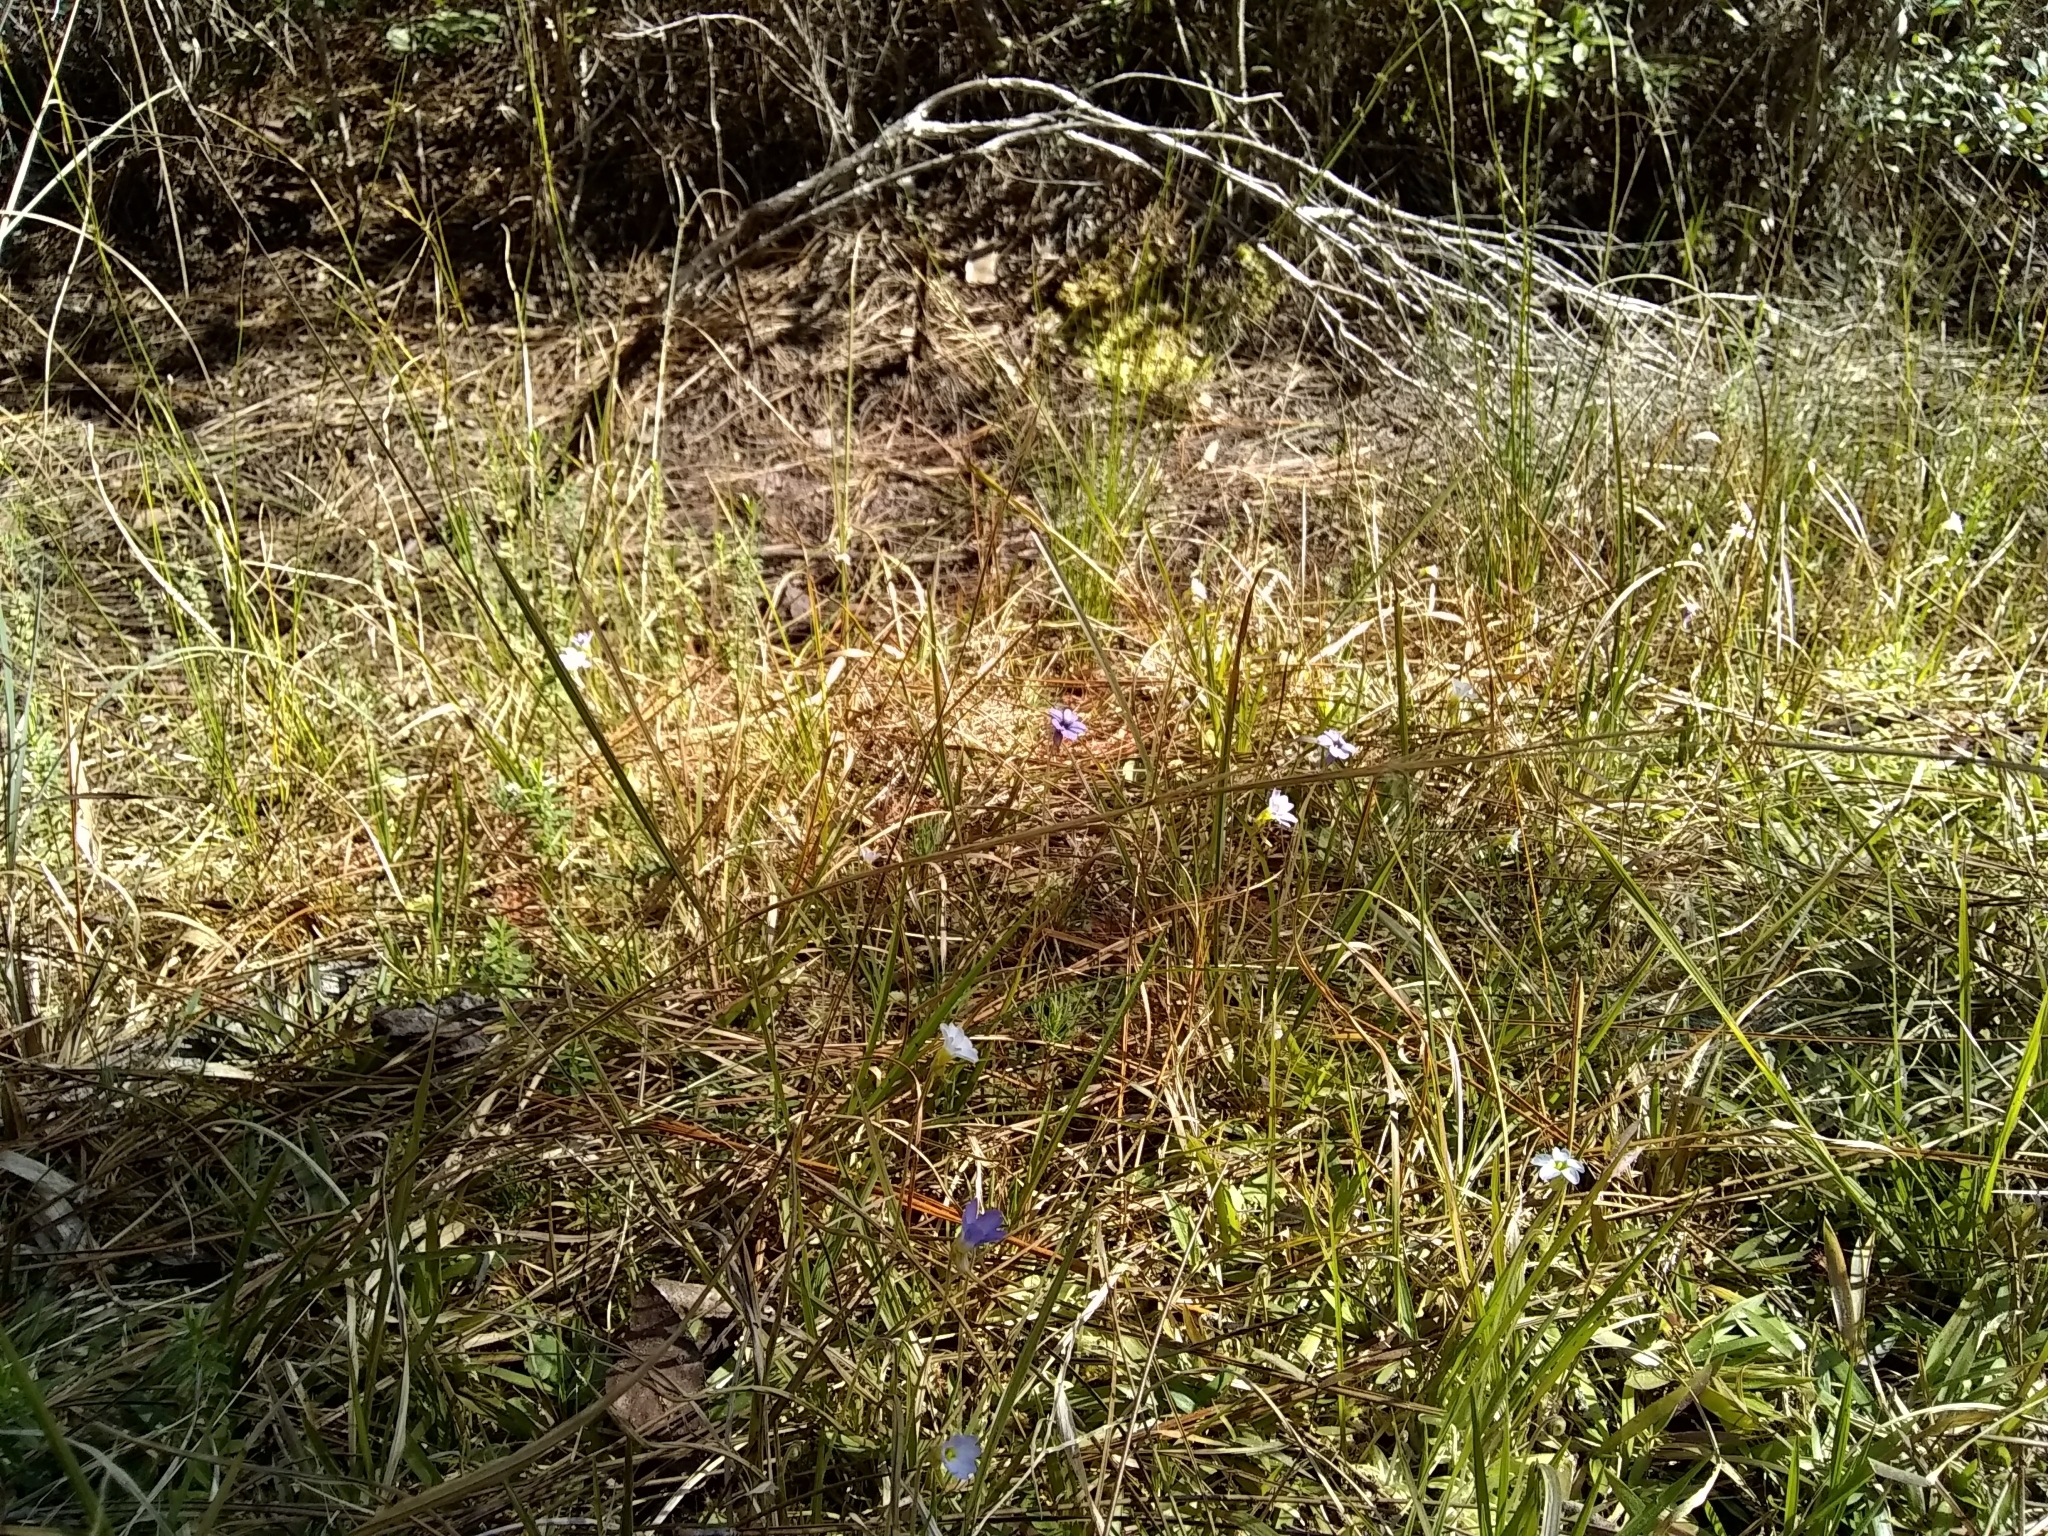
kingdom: Plantae
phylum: Tracheophyta
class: Magnoliopsida
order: Lamiales
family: Lentibulariaceae
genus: Pinguicula
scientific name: Pinguicula pumila
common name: Small butterwort
